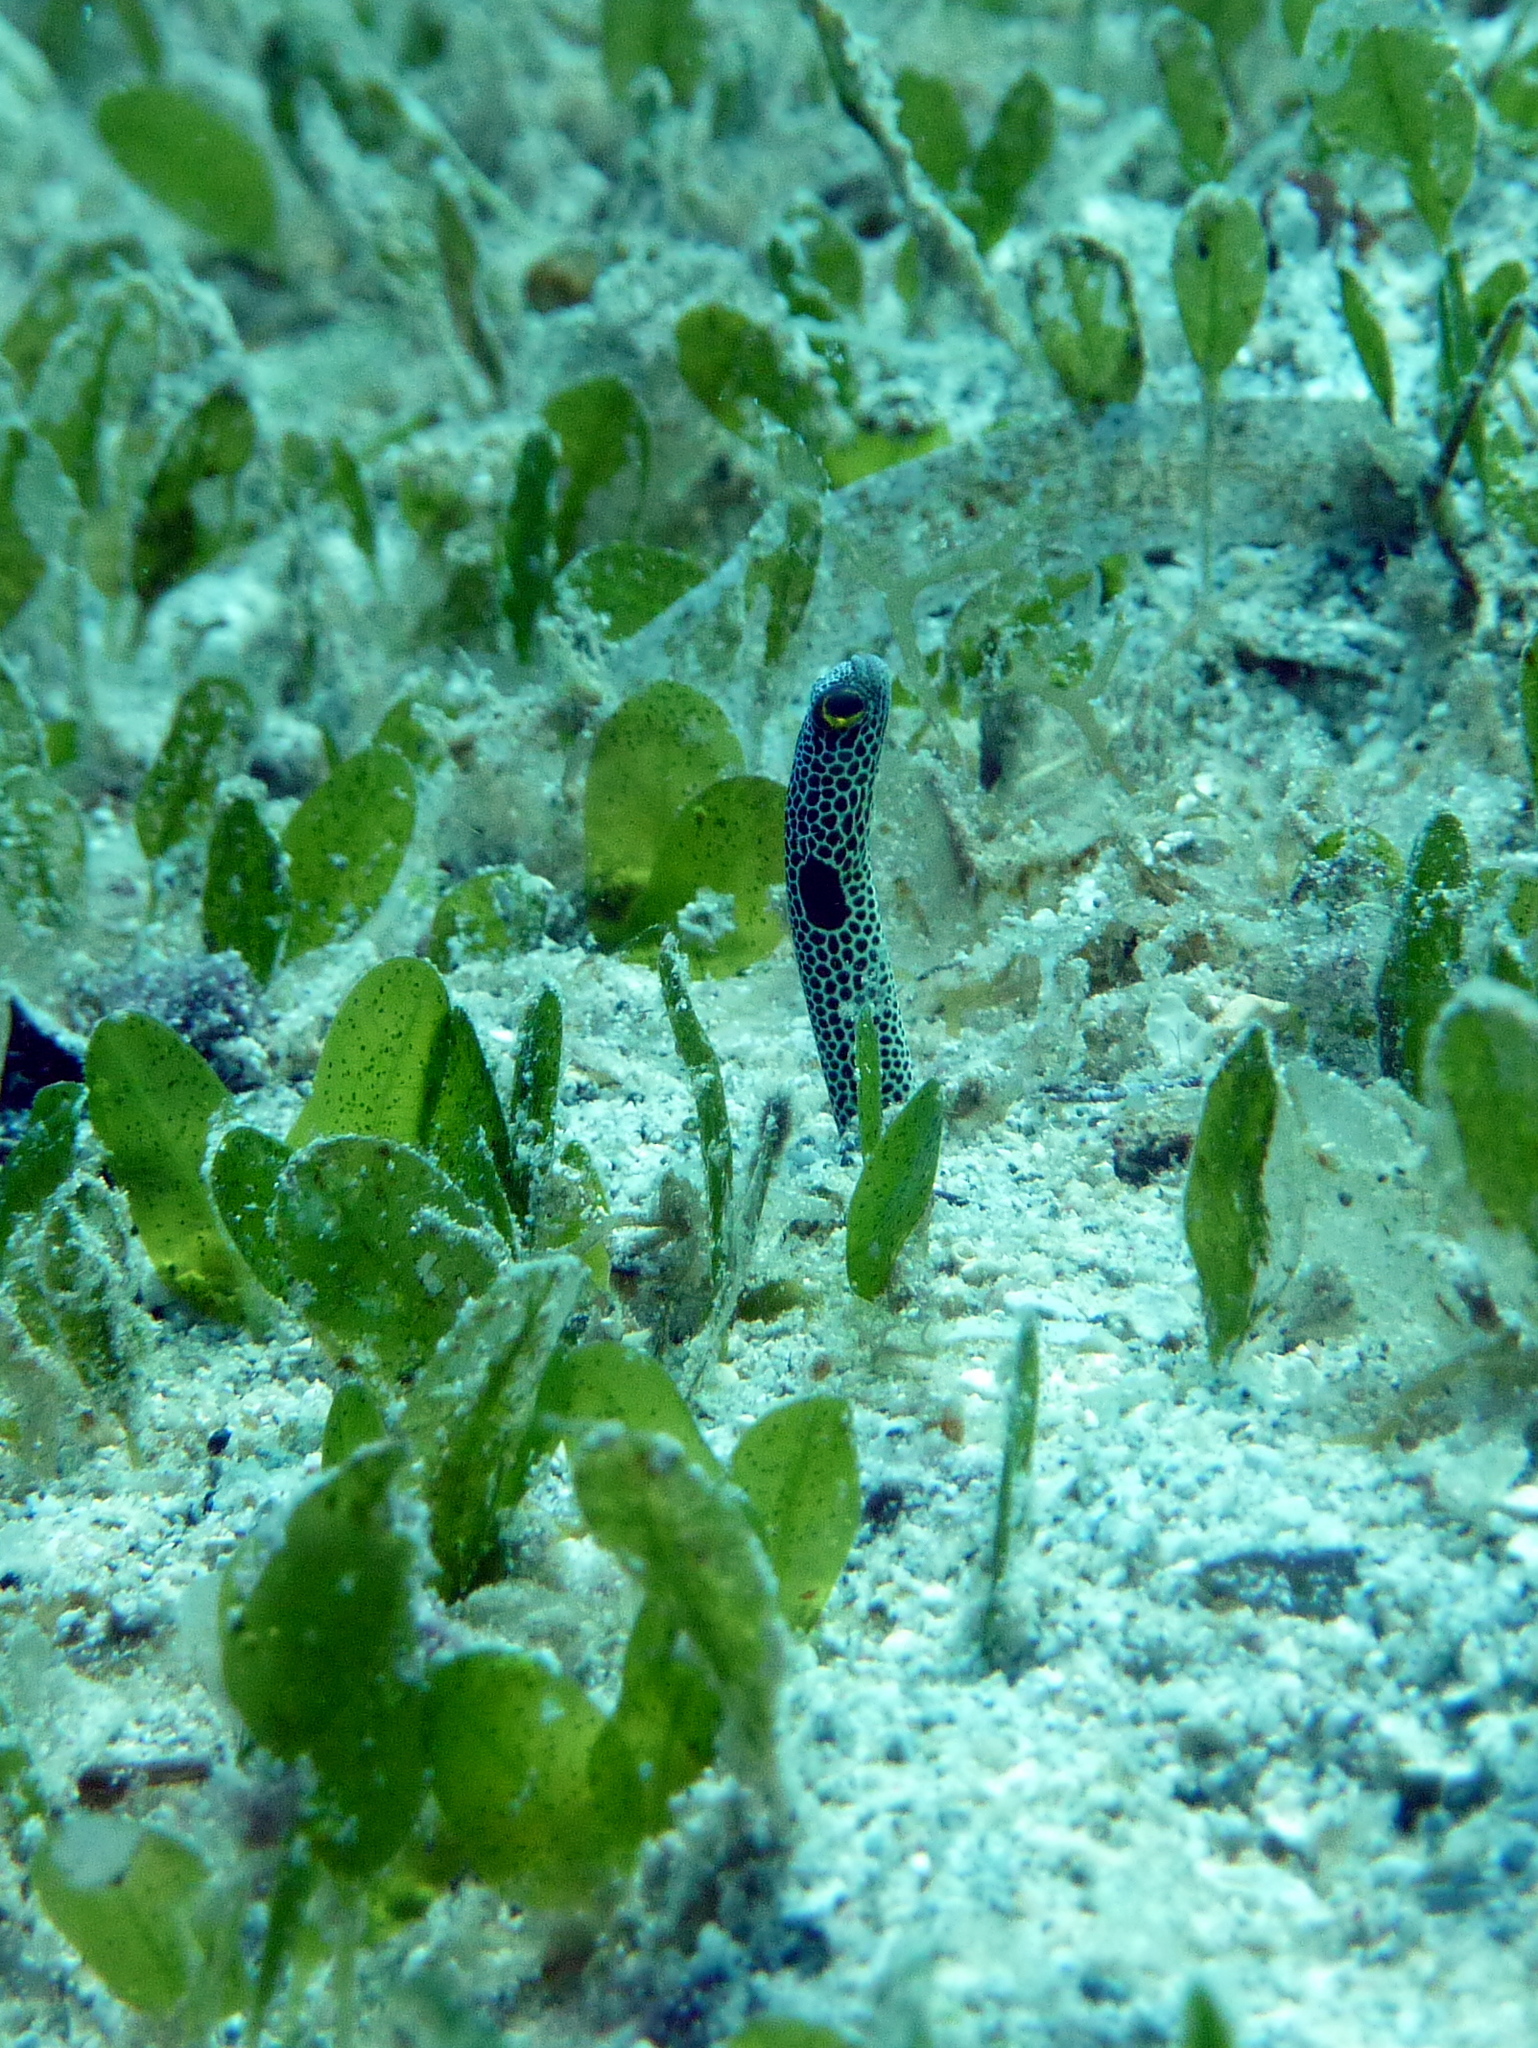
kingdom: Animalia
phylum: Chordata
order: Anguilliformes
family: Congridae
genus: Heteroconger
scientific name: Heteroconger hassi
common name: Spotted garden eel
